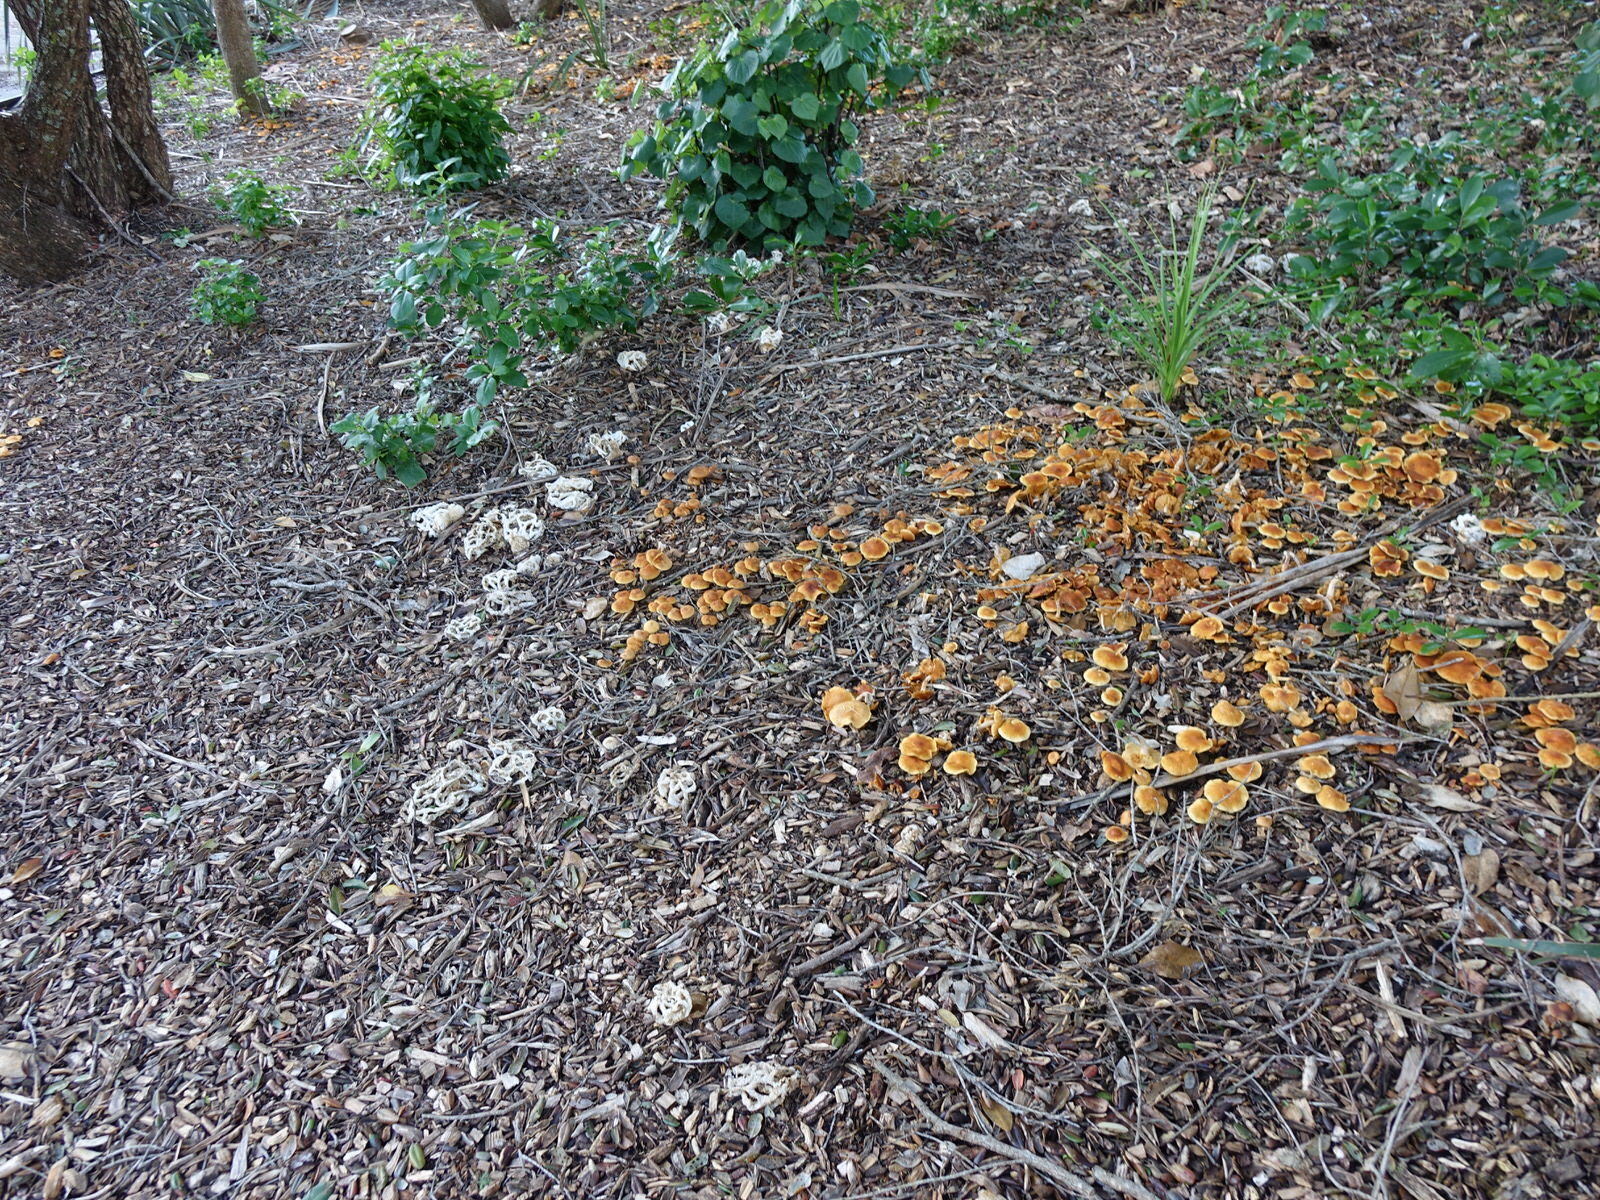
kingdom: Fungi
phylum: Basidiomycota
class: Agaricomycetes
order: Phallales
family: Phallaceae
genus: Ileodictyon
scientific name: Ileodictyon cibarium
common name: Basket fungus
